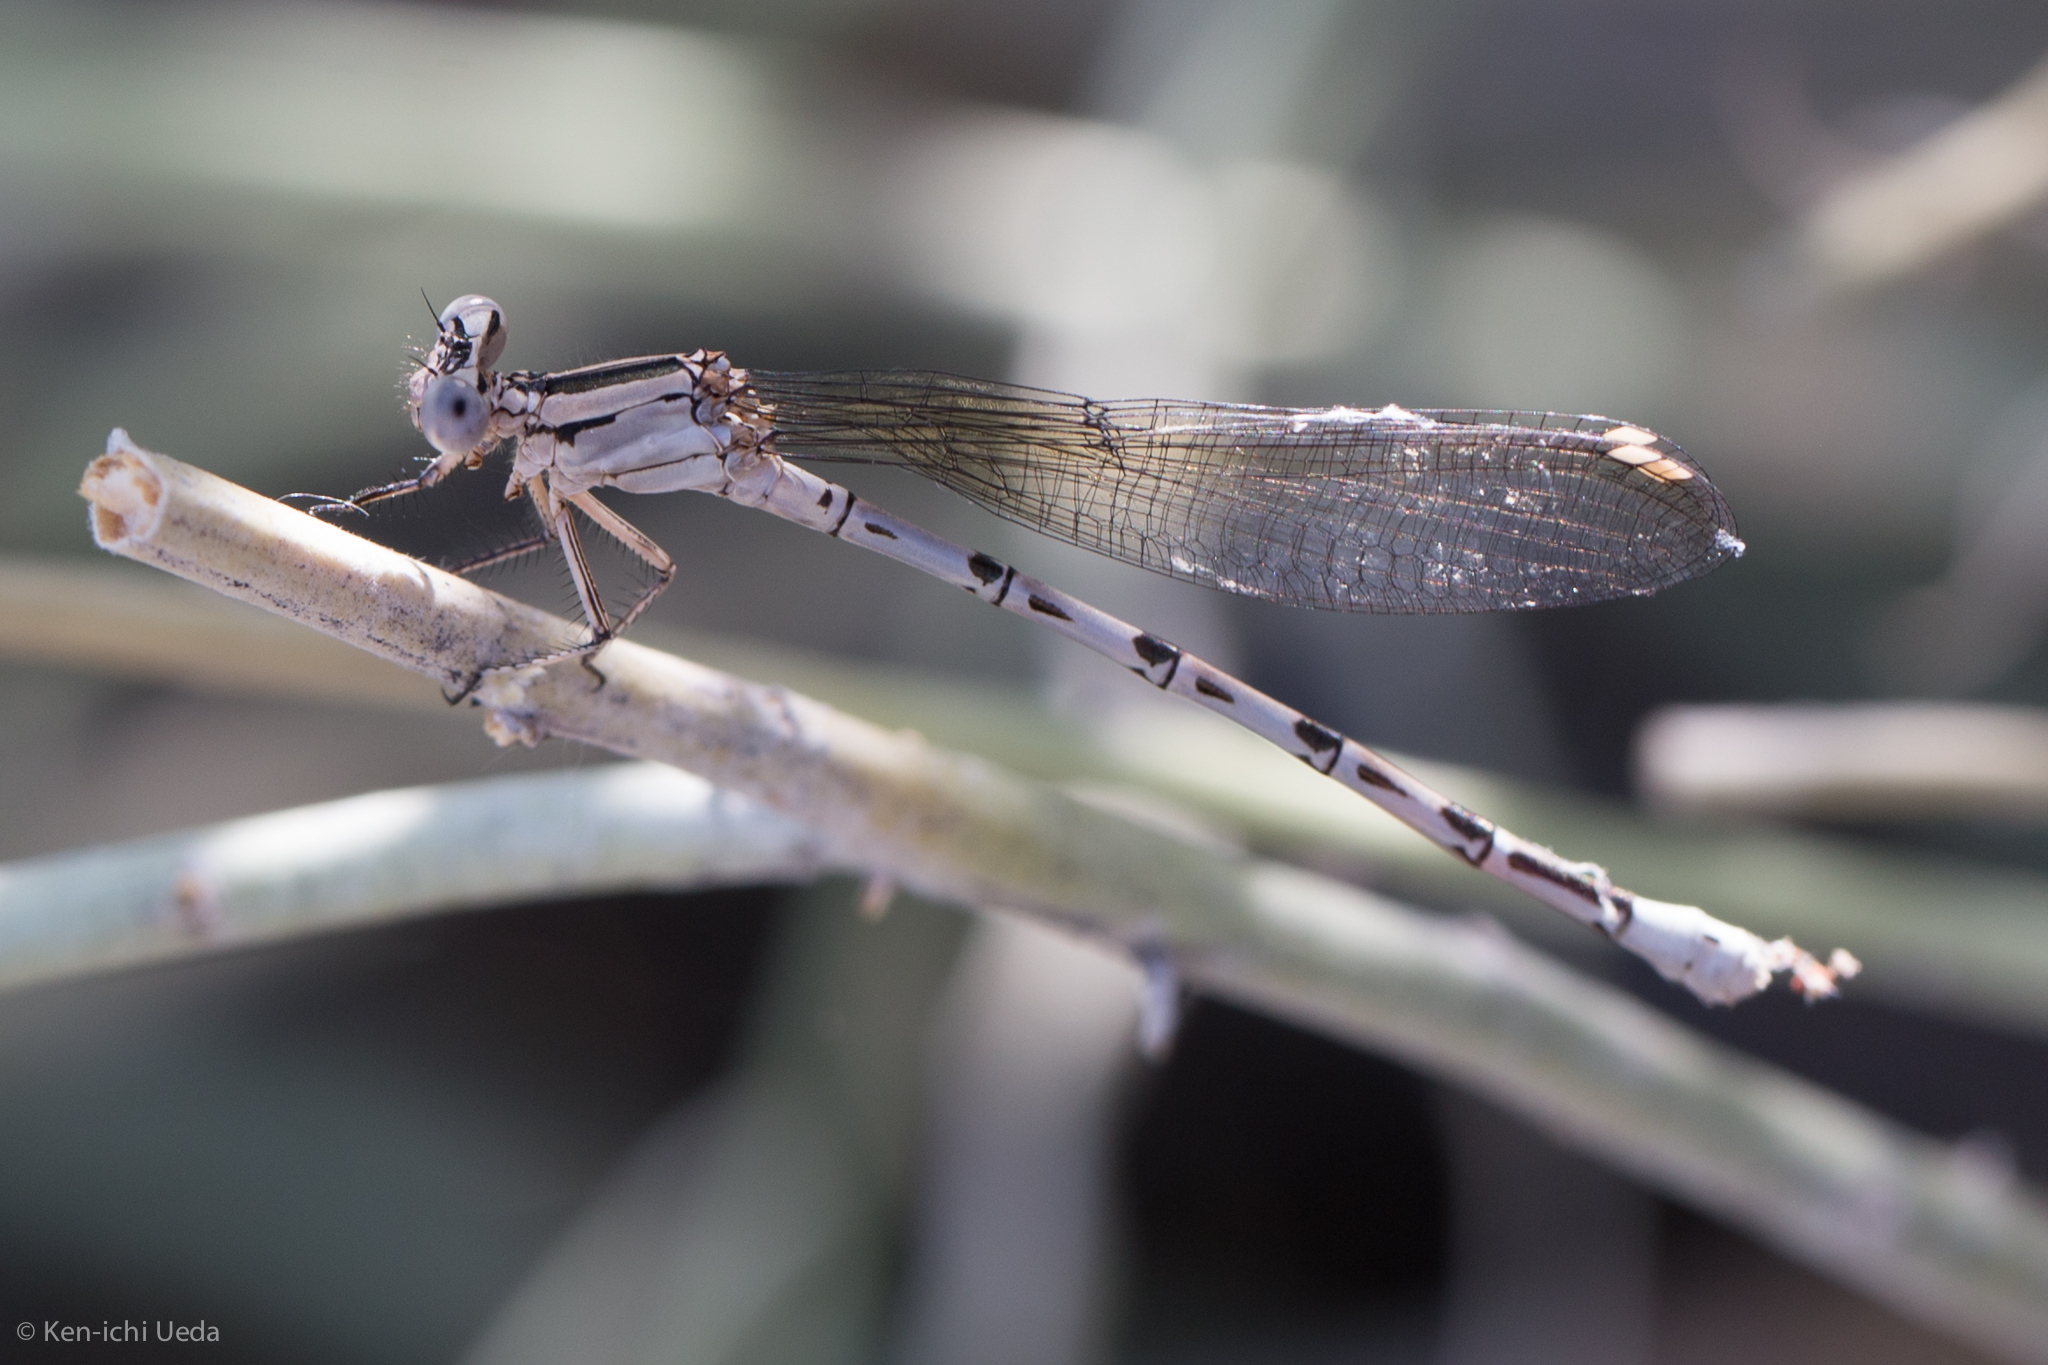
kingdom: Animalia
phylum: Arthropoda
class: Insecta
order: Odonata
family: Coenagrionidae
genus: Argia
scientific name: Argia vivida
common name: Vivid dancer
